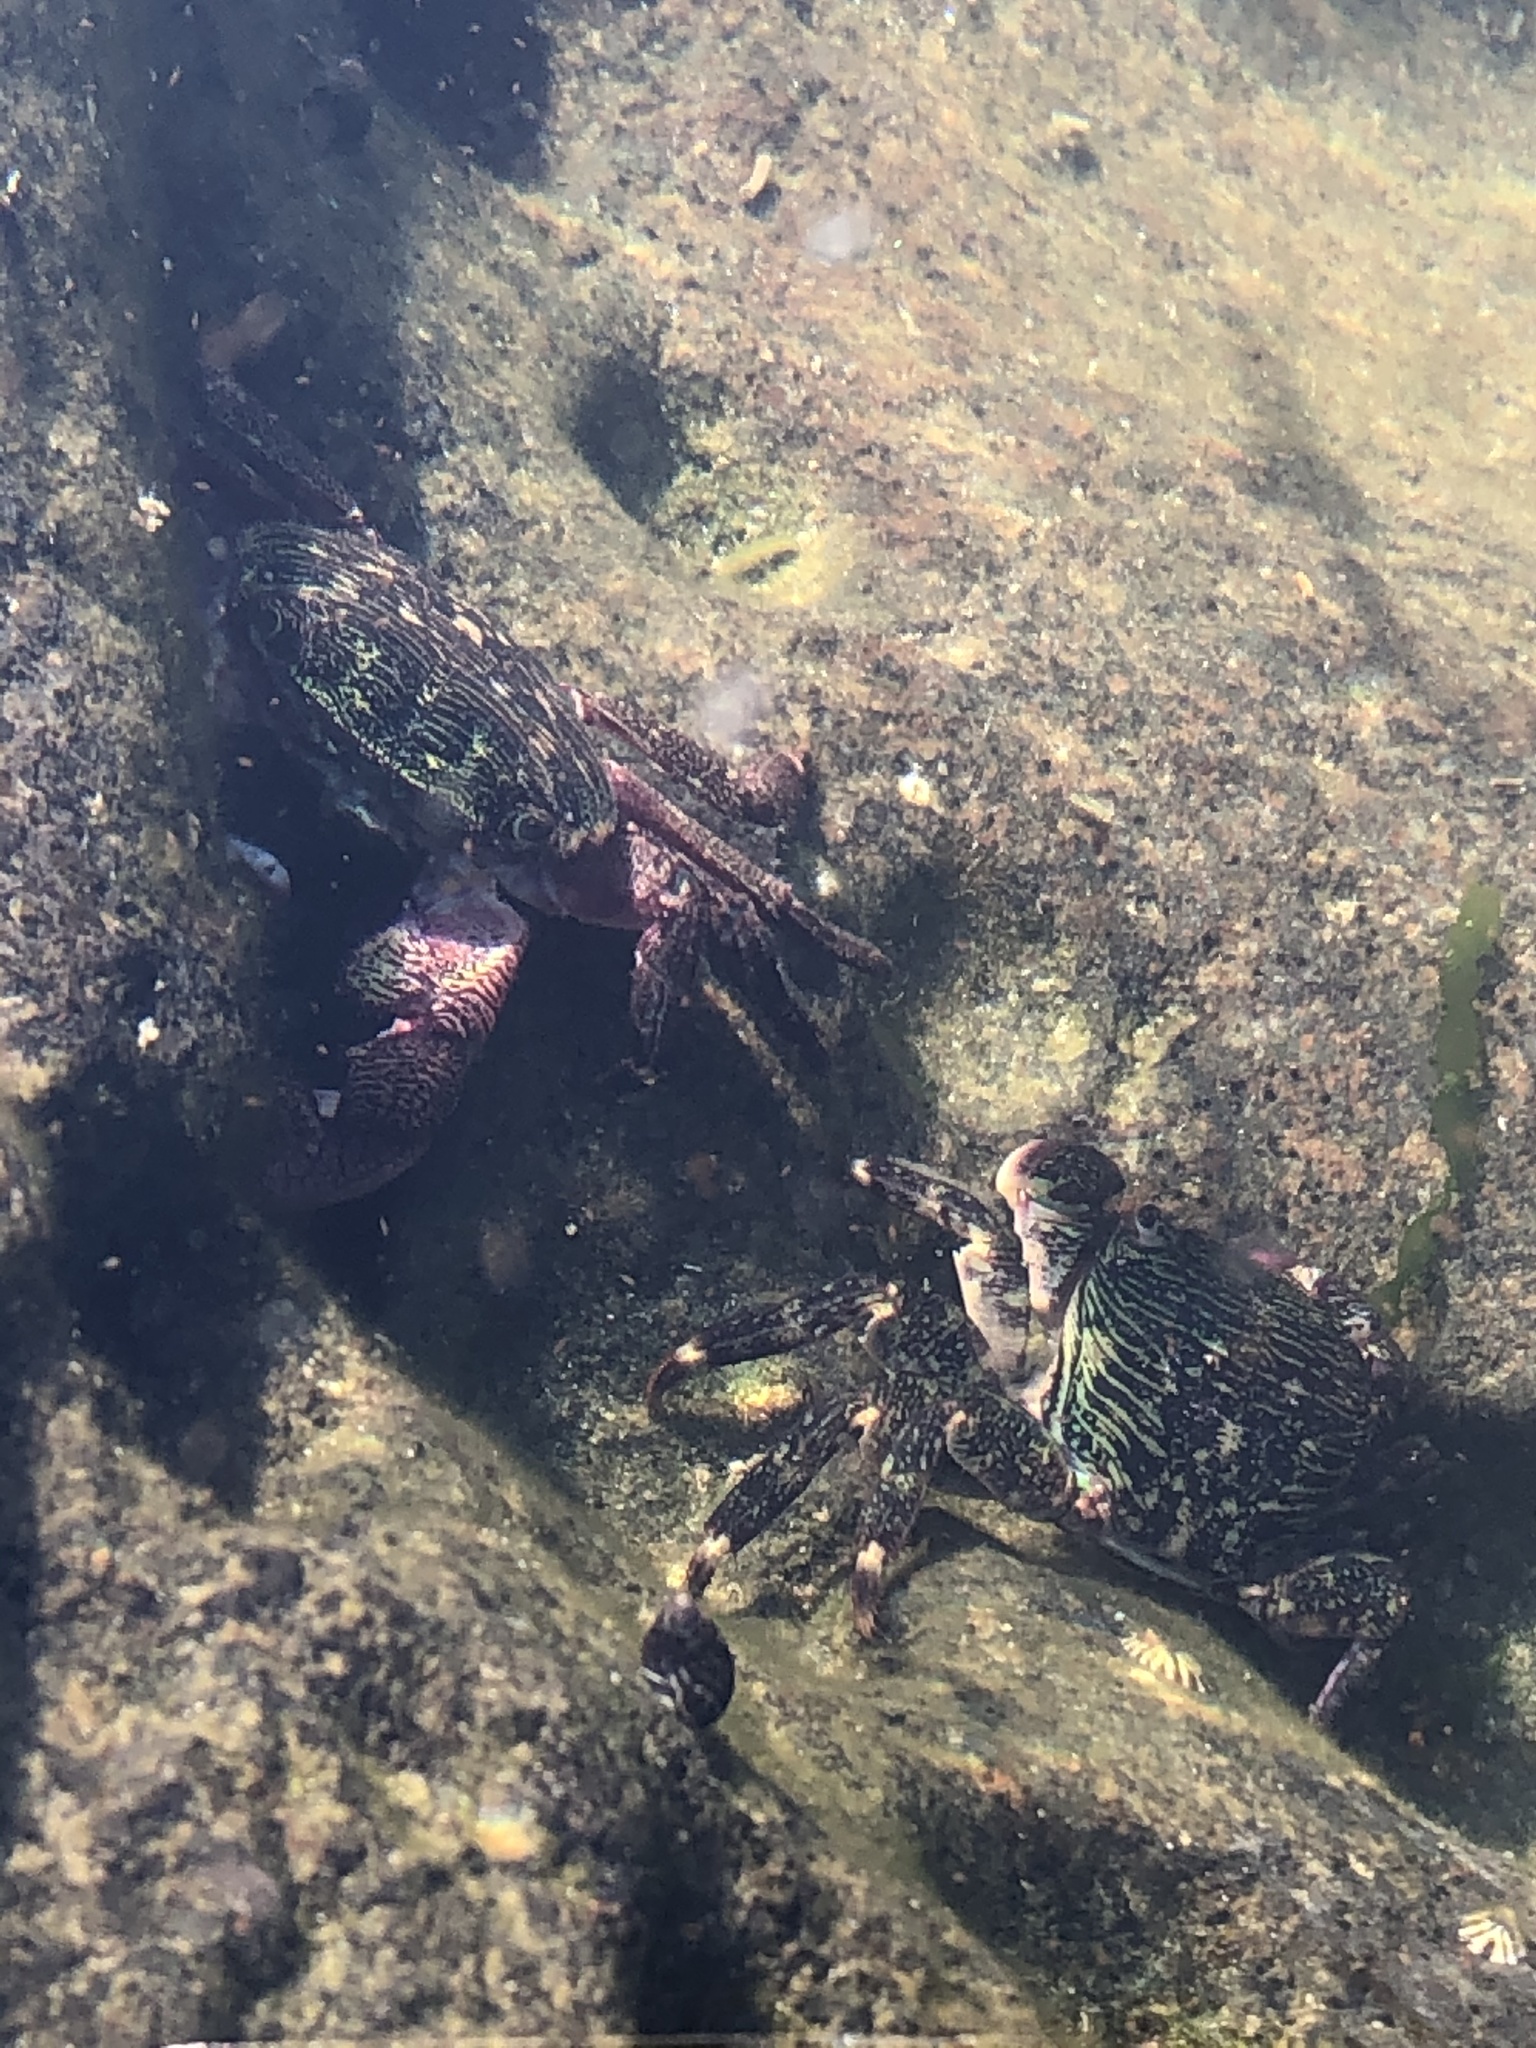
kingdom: Animalia
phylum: Arthropoda
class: Malacostraca
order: Decapoda
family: Grapsidae
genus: Pachygrapsus
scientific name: Pachygrapsus crassipes
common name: Striped shore crab
